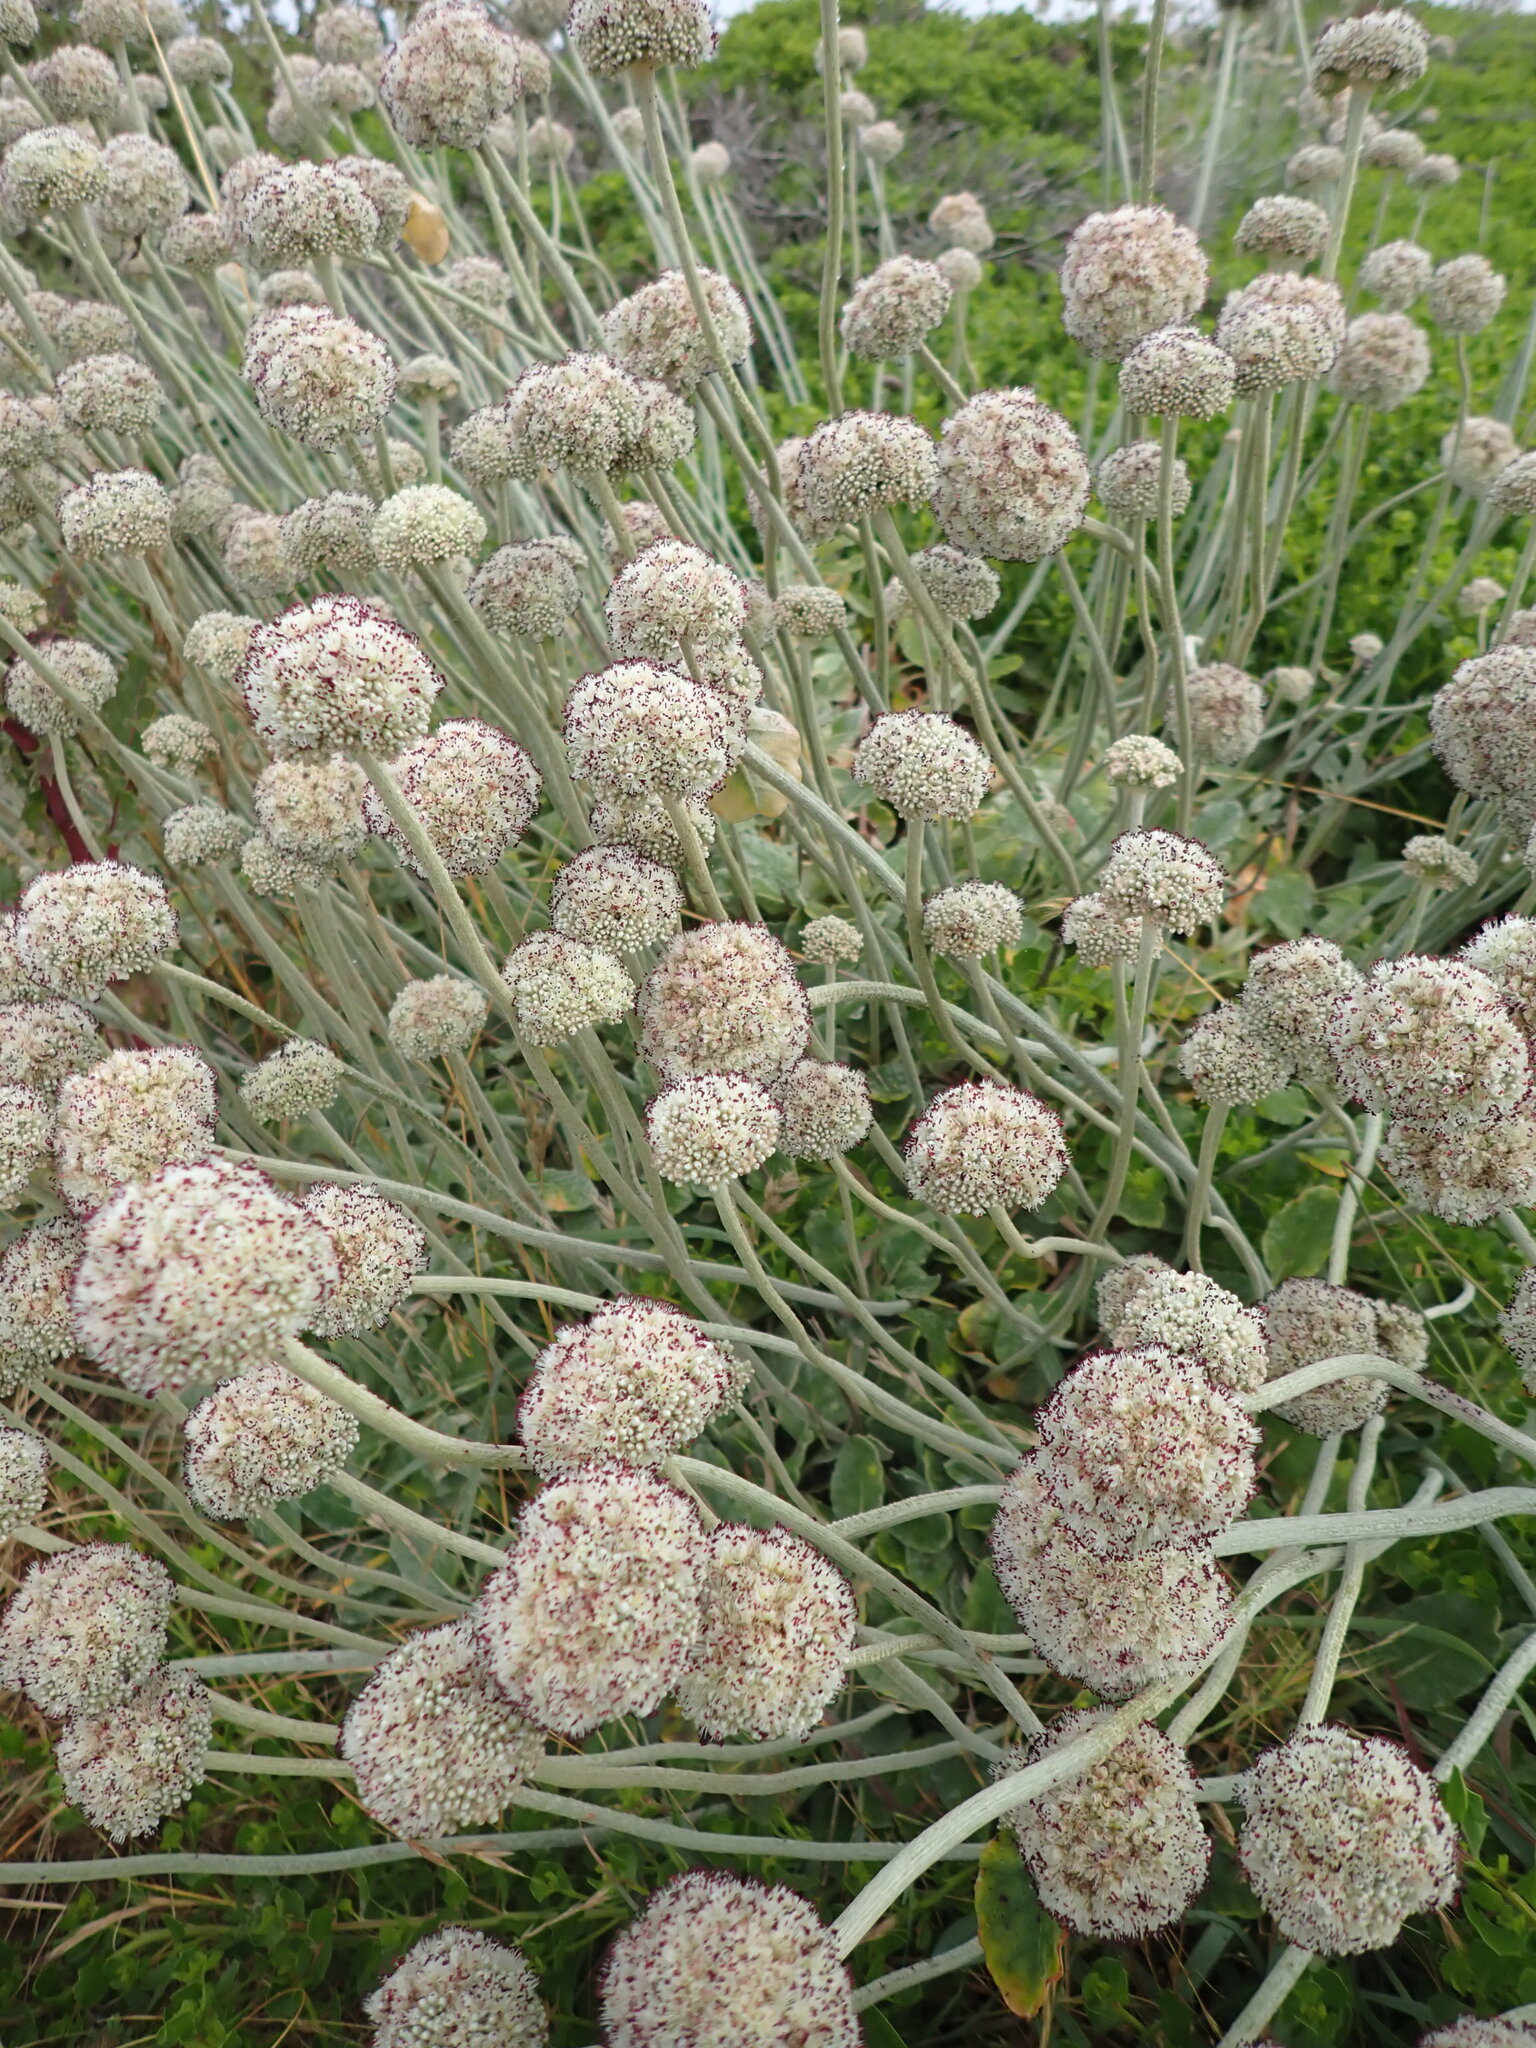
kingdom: Plantae
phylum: Tracheophyta
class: Magnoliopsida
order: Caryophyllales
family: Polygonaceae
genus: Eriogonum
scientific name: Eriogonum latifolium
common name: Seaside wild buckwheat
